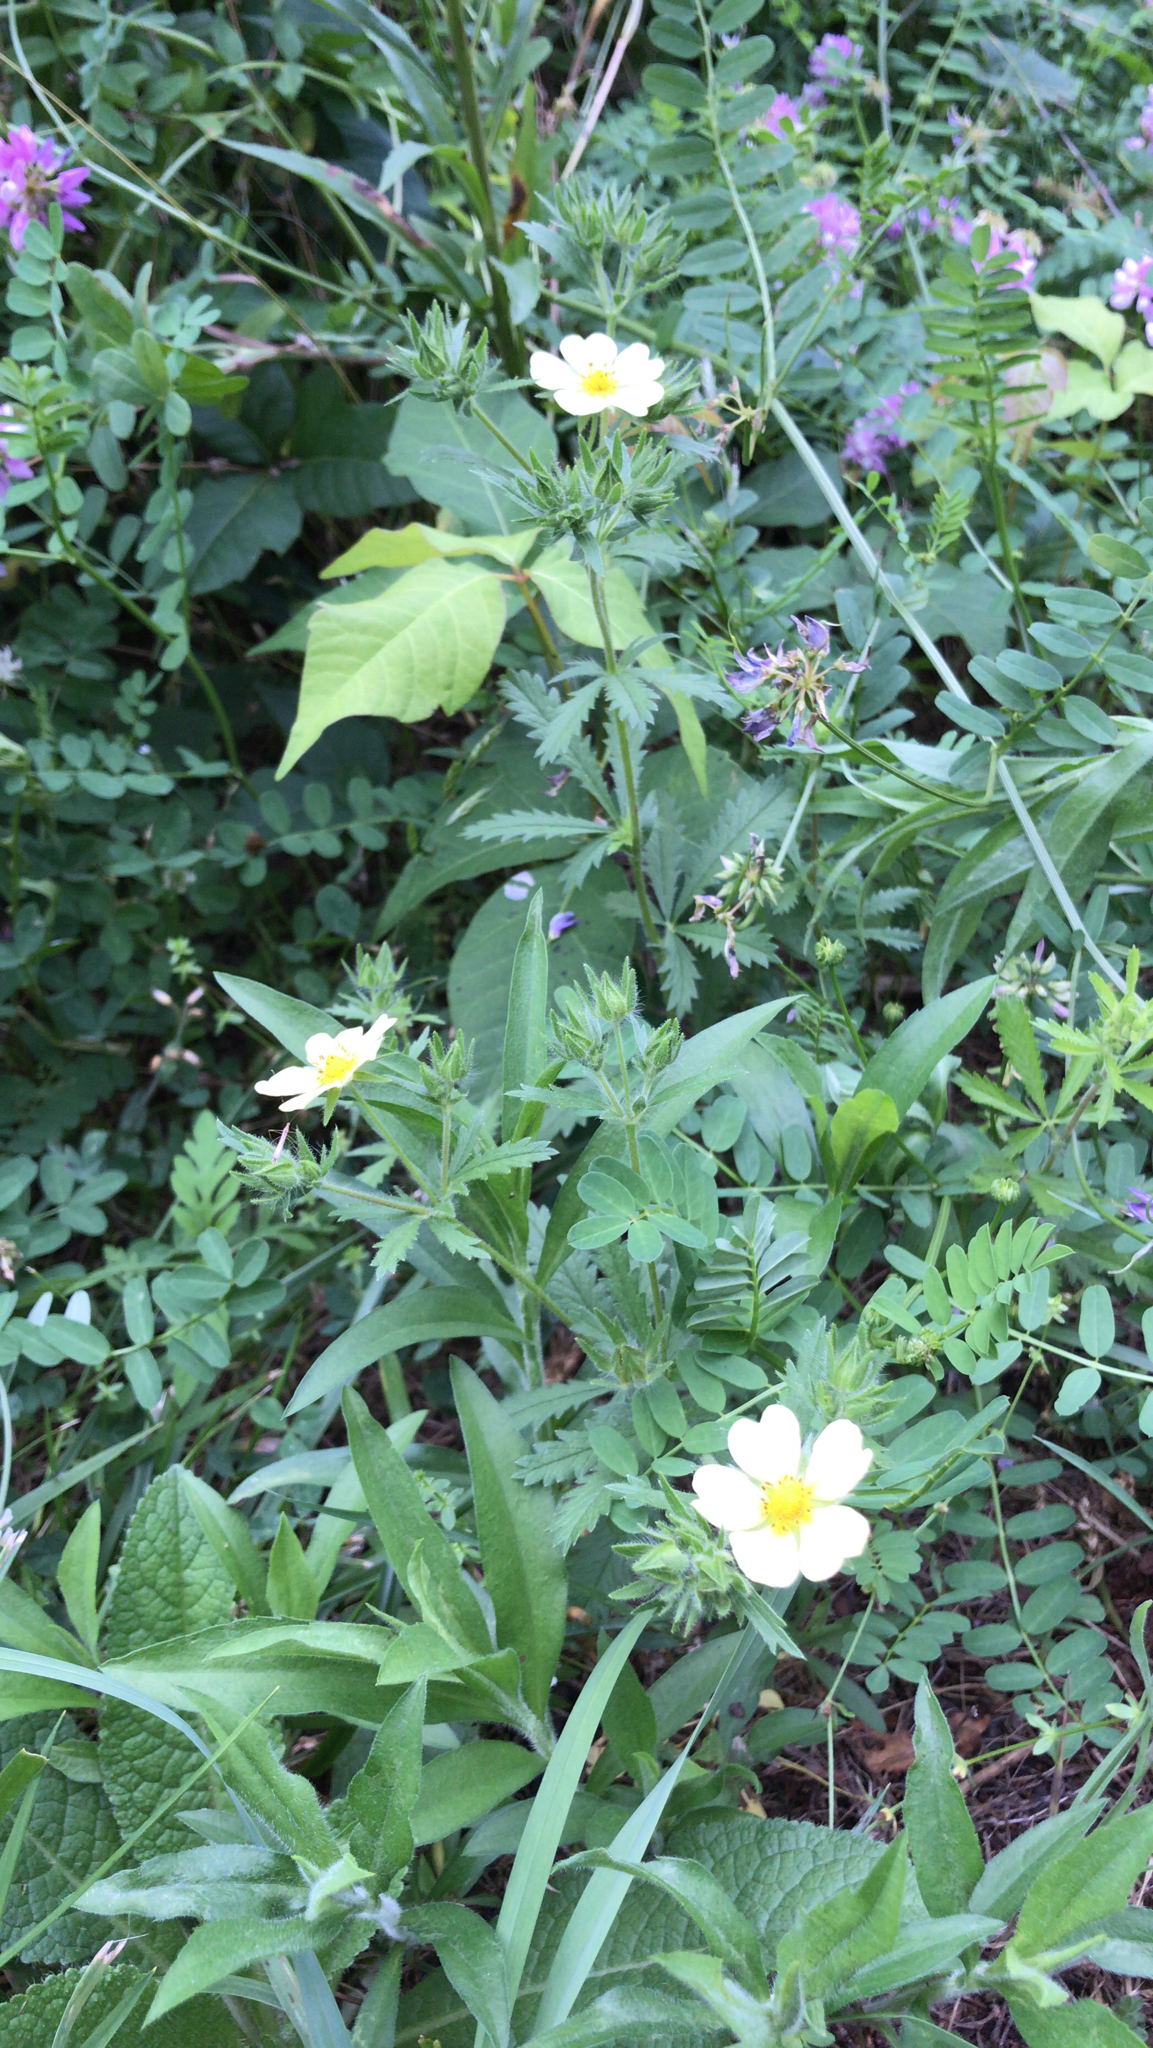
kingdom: Plantae
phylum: Tracheophyta
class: Magnoliopsida
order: Rosales
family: Rosaceae
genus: Potentilla
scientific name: Potentilla recta
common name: Sulphur cinquefoil
